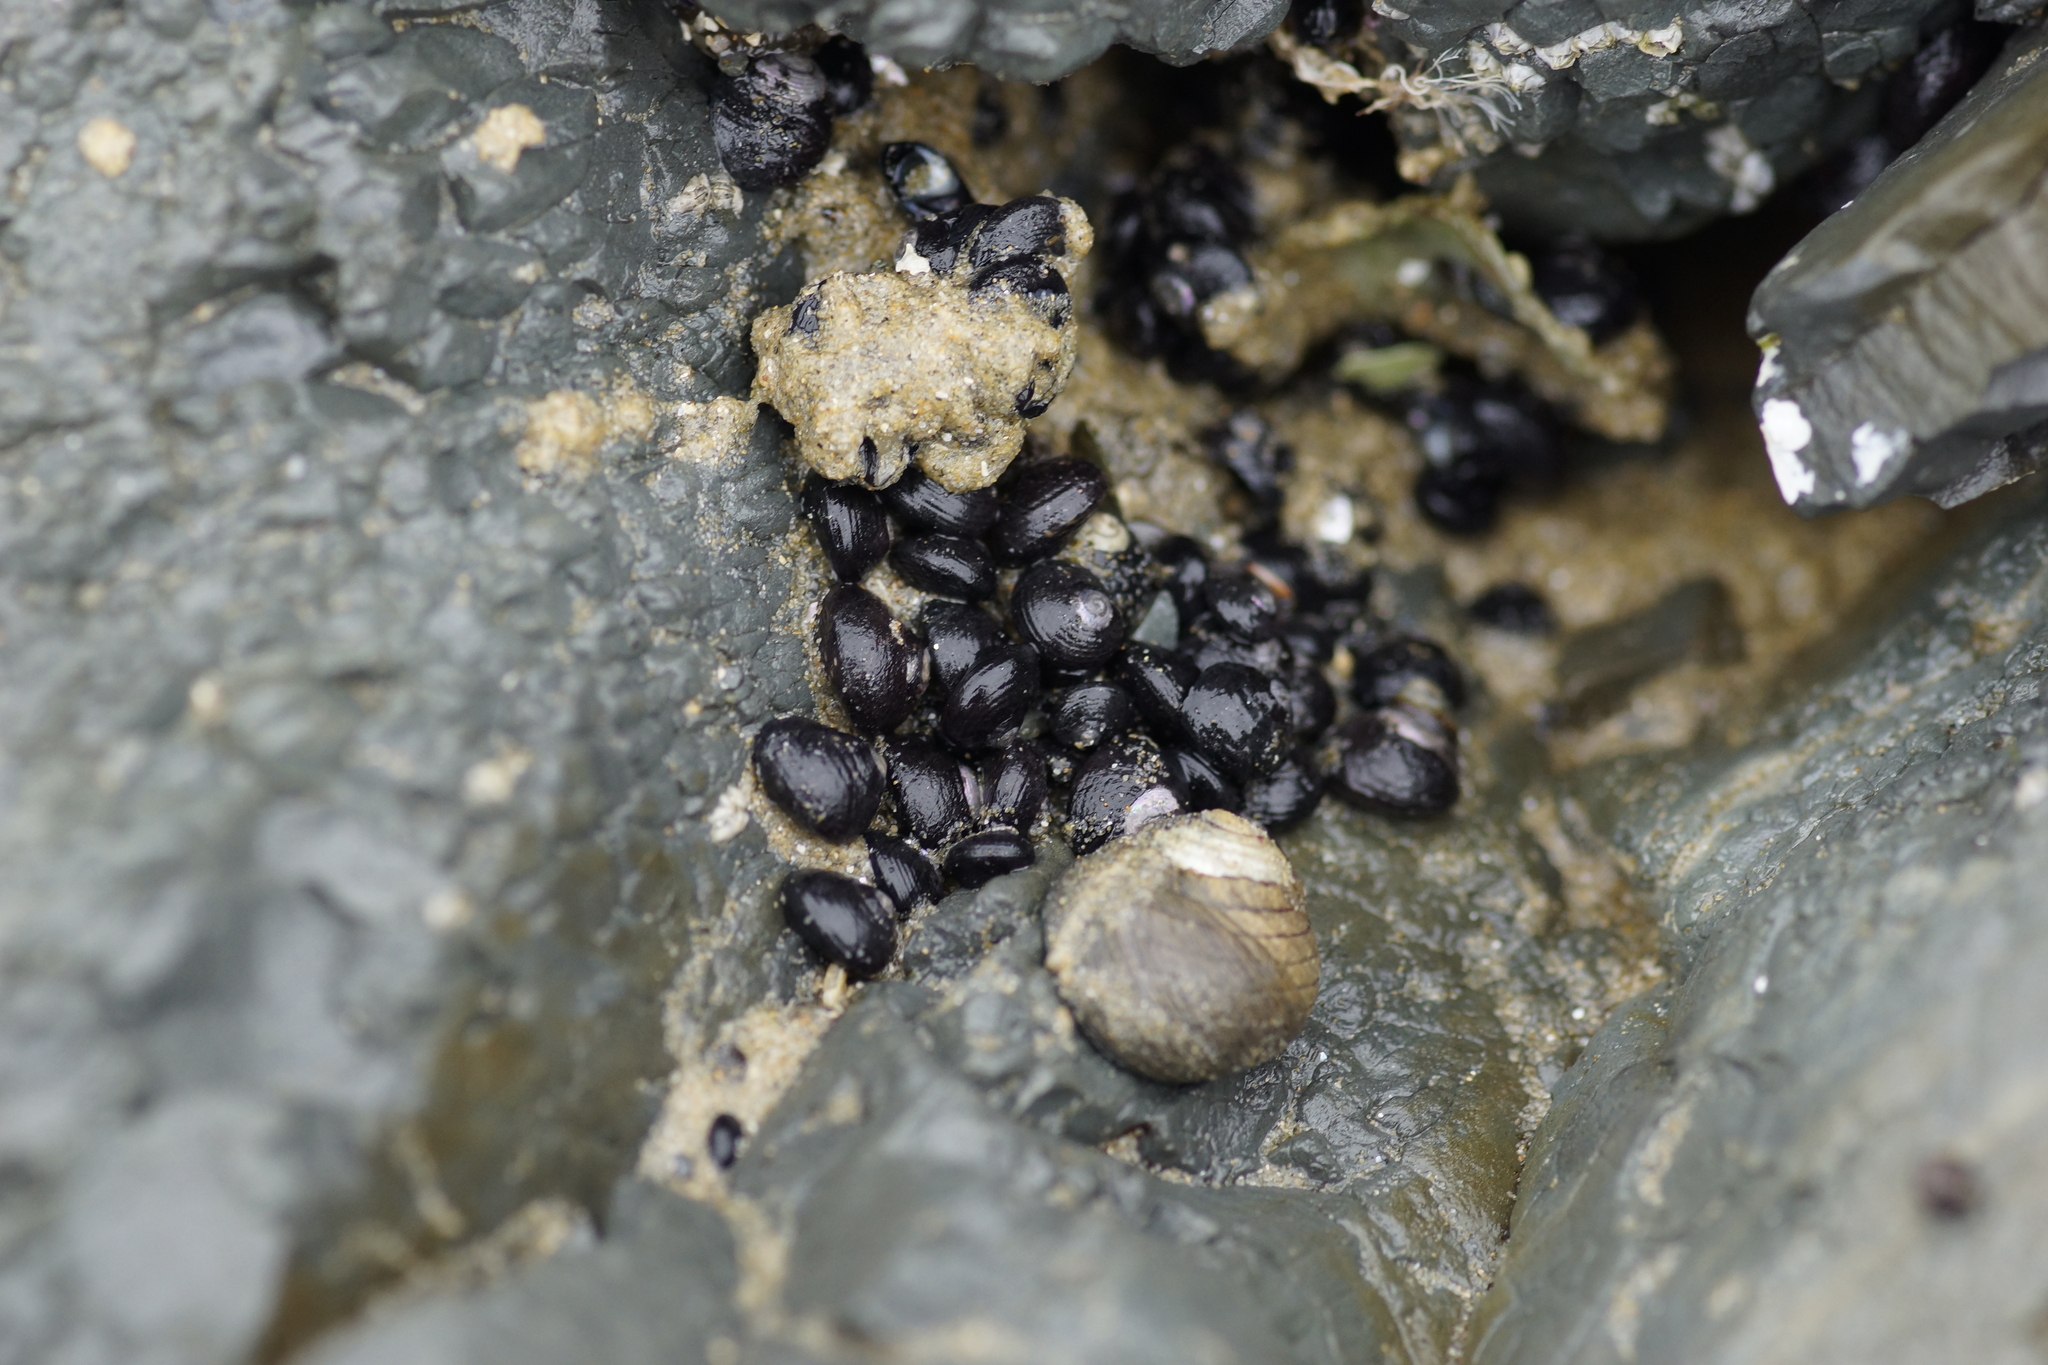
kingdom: Animalia
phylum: Mollusca
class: Gastropoda
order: Trochida
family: Trochidae
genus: Diloma
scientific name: Diloma aridum
